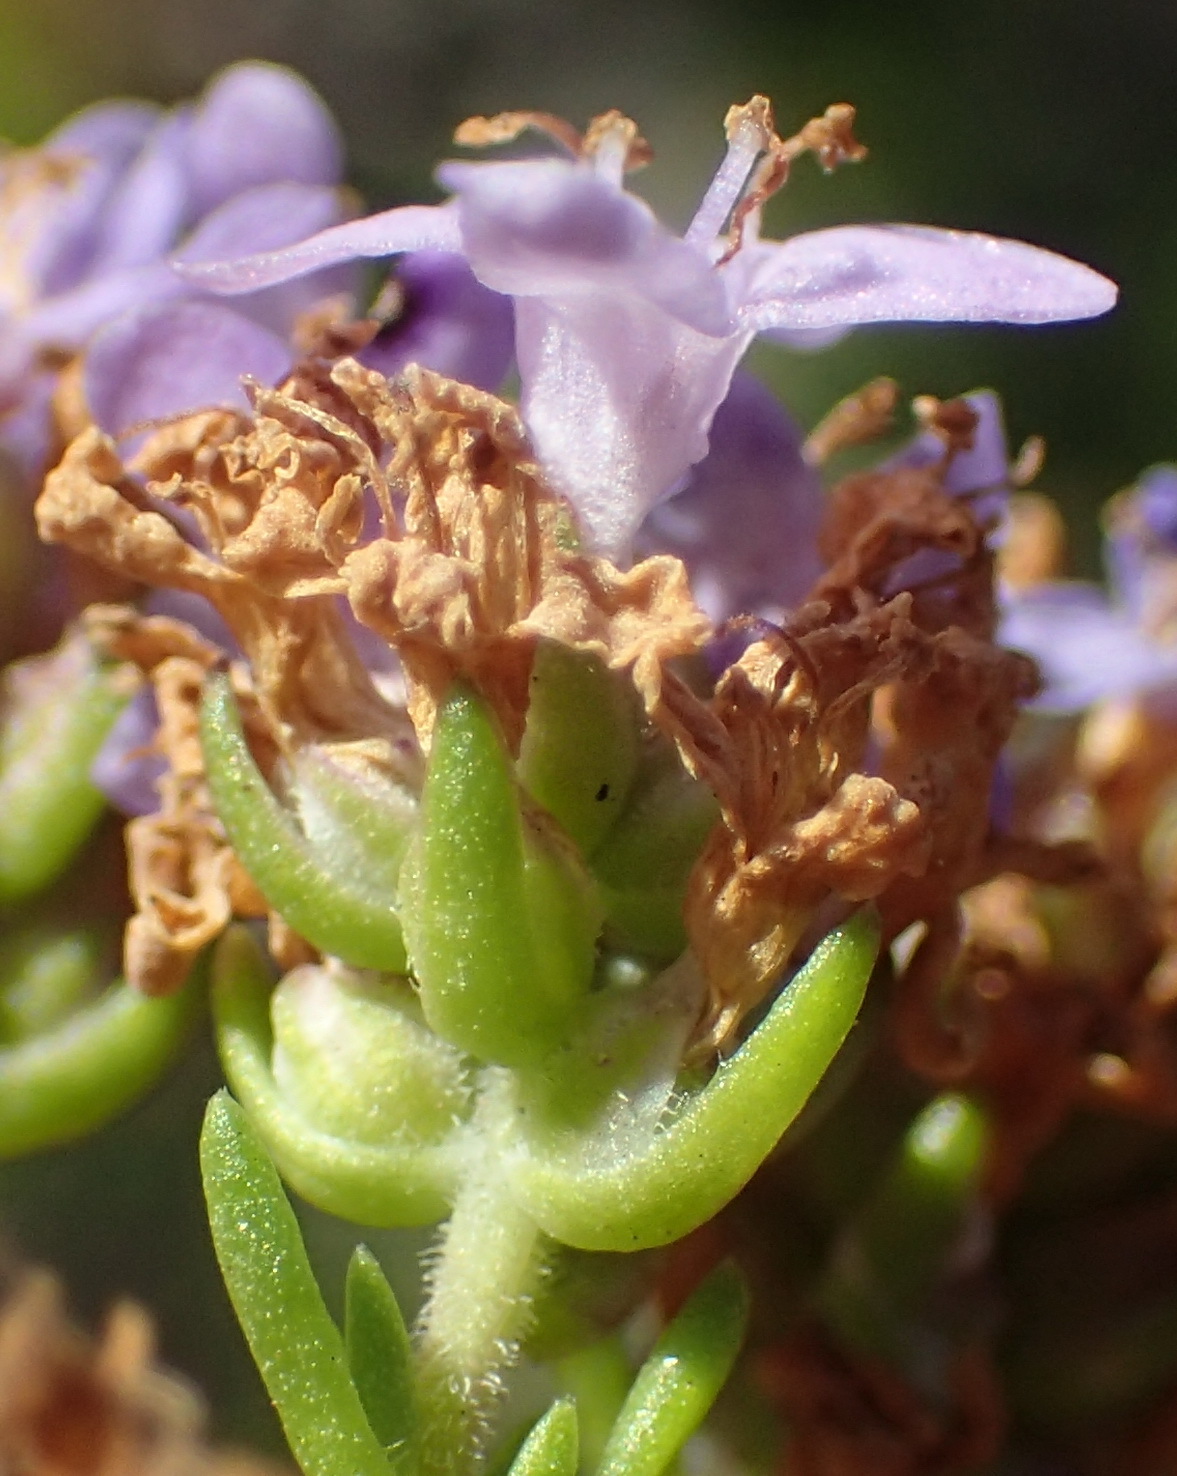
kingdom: Plantae
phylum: Tracheophyta
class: Magnoliopsida
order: Lamiales
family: Scrophulariaceae
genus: Selago
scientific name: Selago canescens
